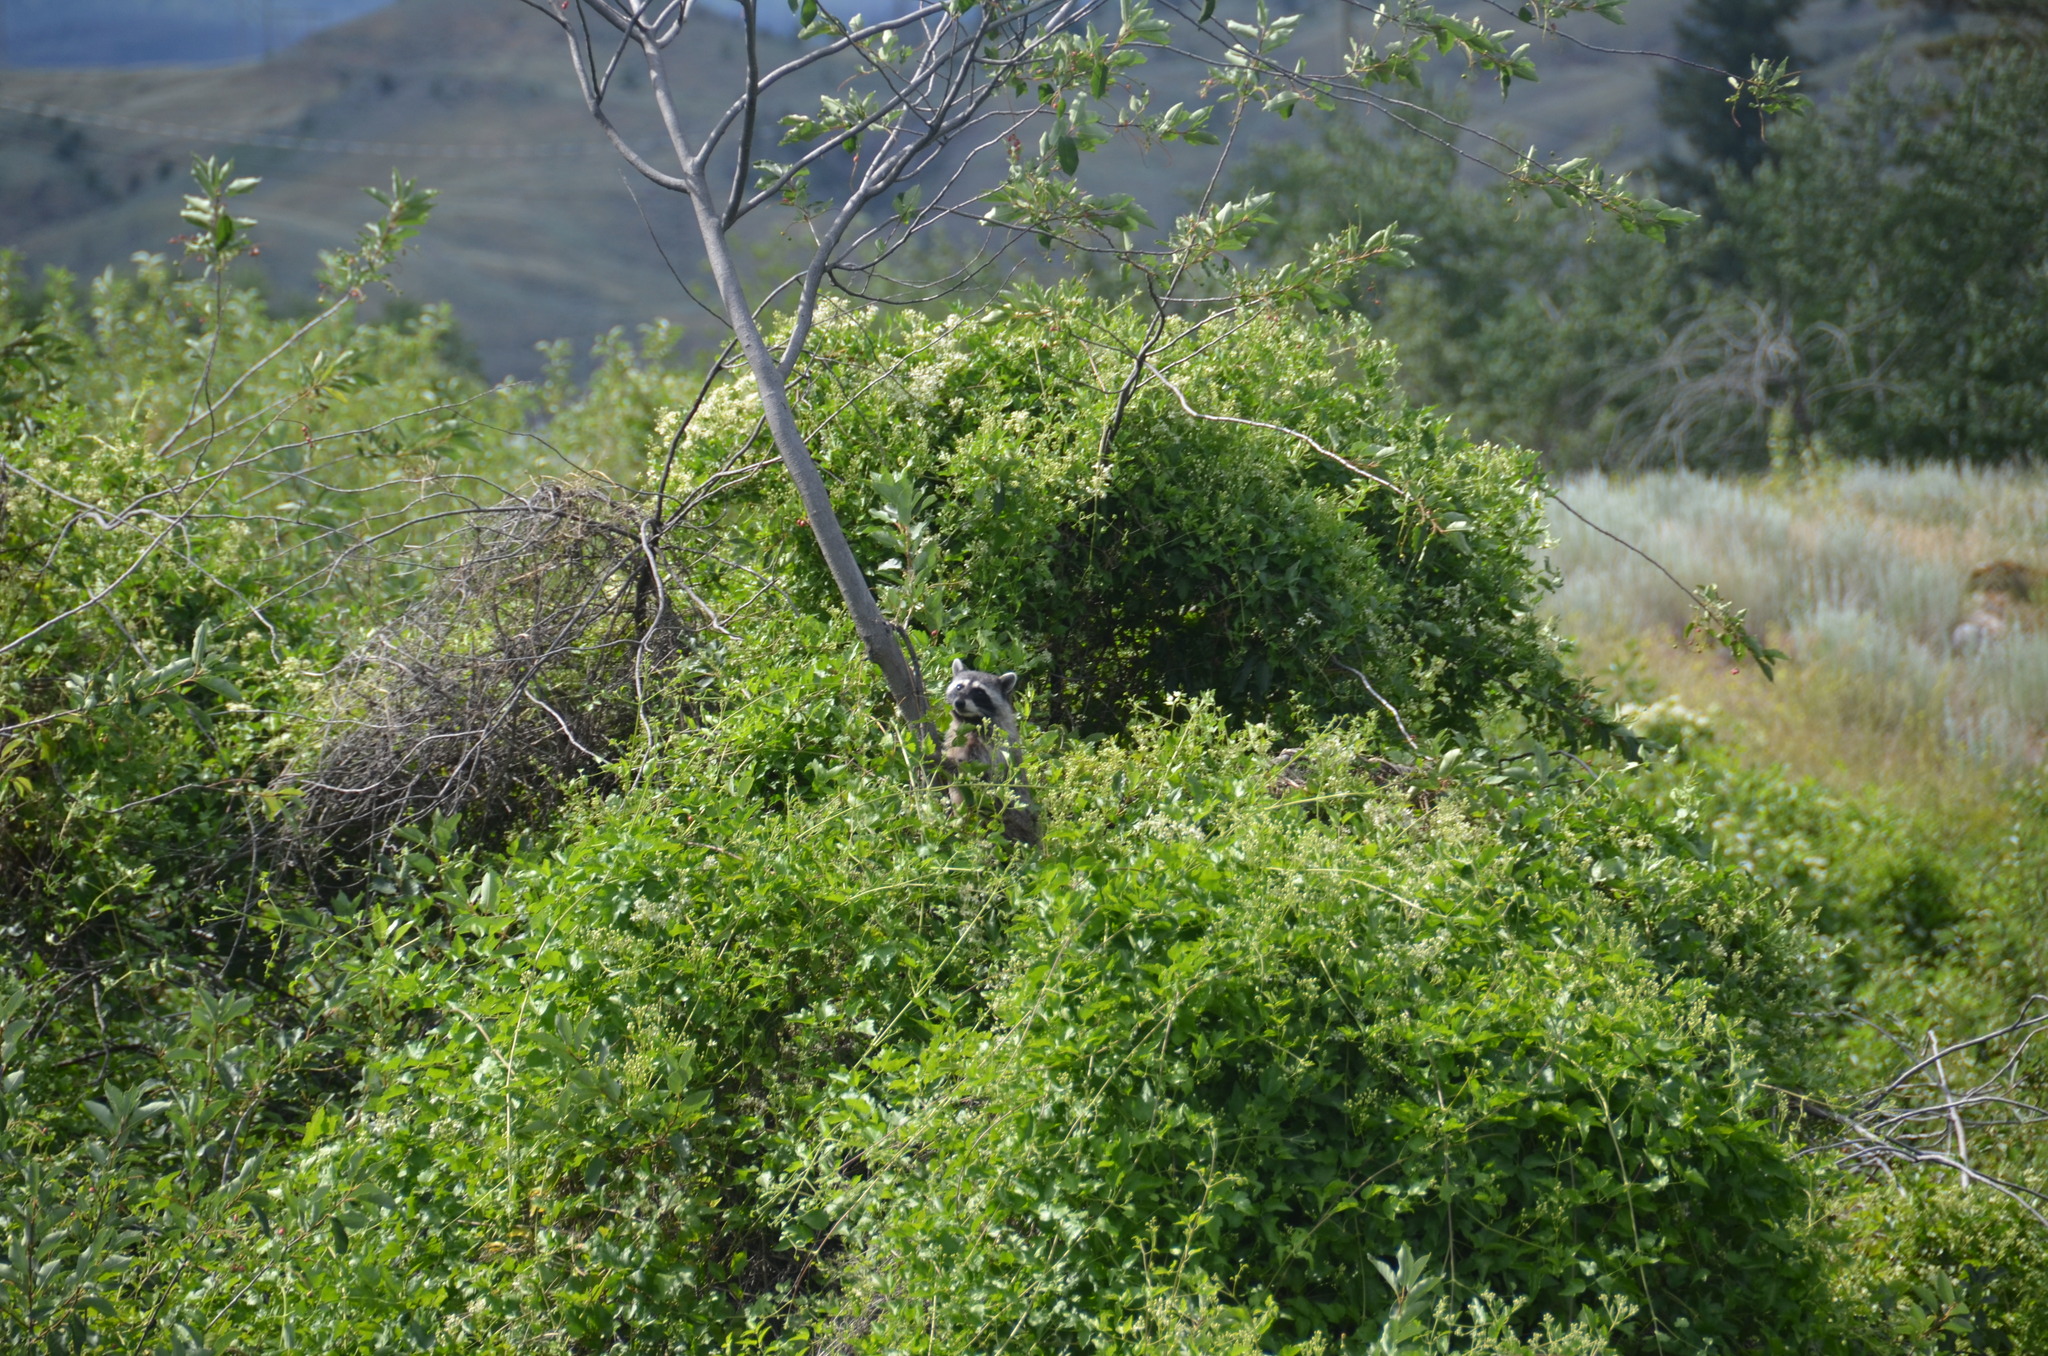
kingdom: Animalia
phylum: Chordata
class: Mammalia
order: Carnivora
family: Procyonidae
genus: Procyon
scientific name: Procyon lotor
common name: Raccoon
